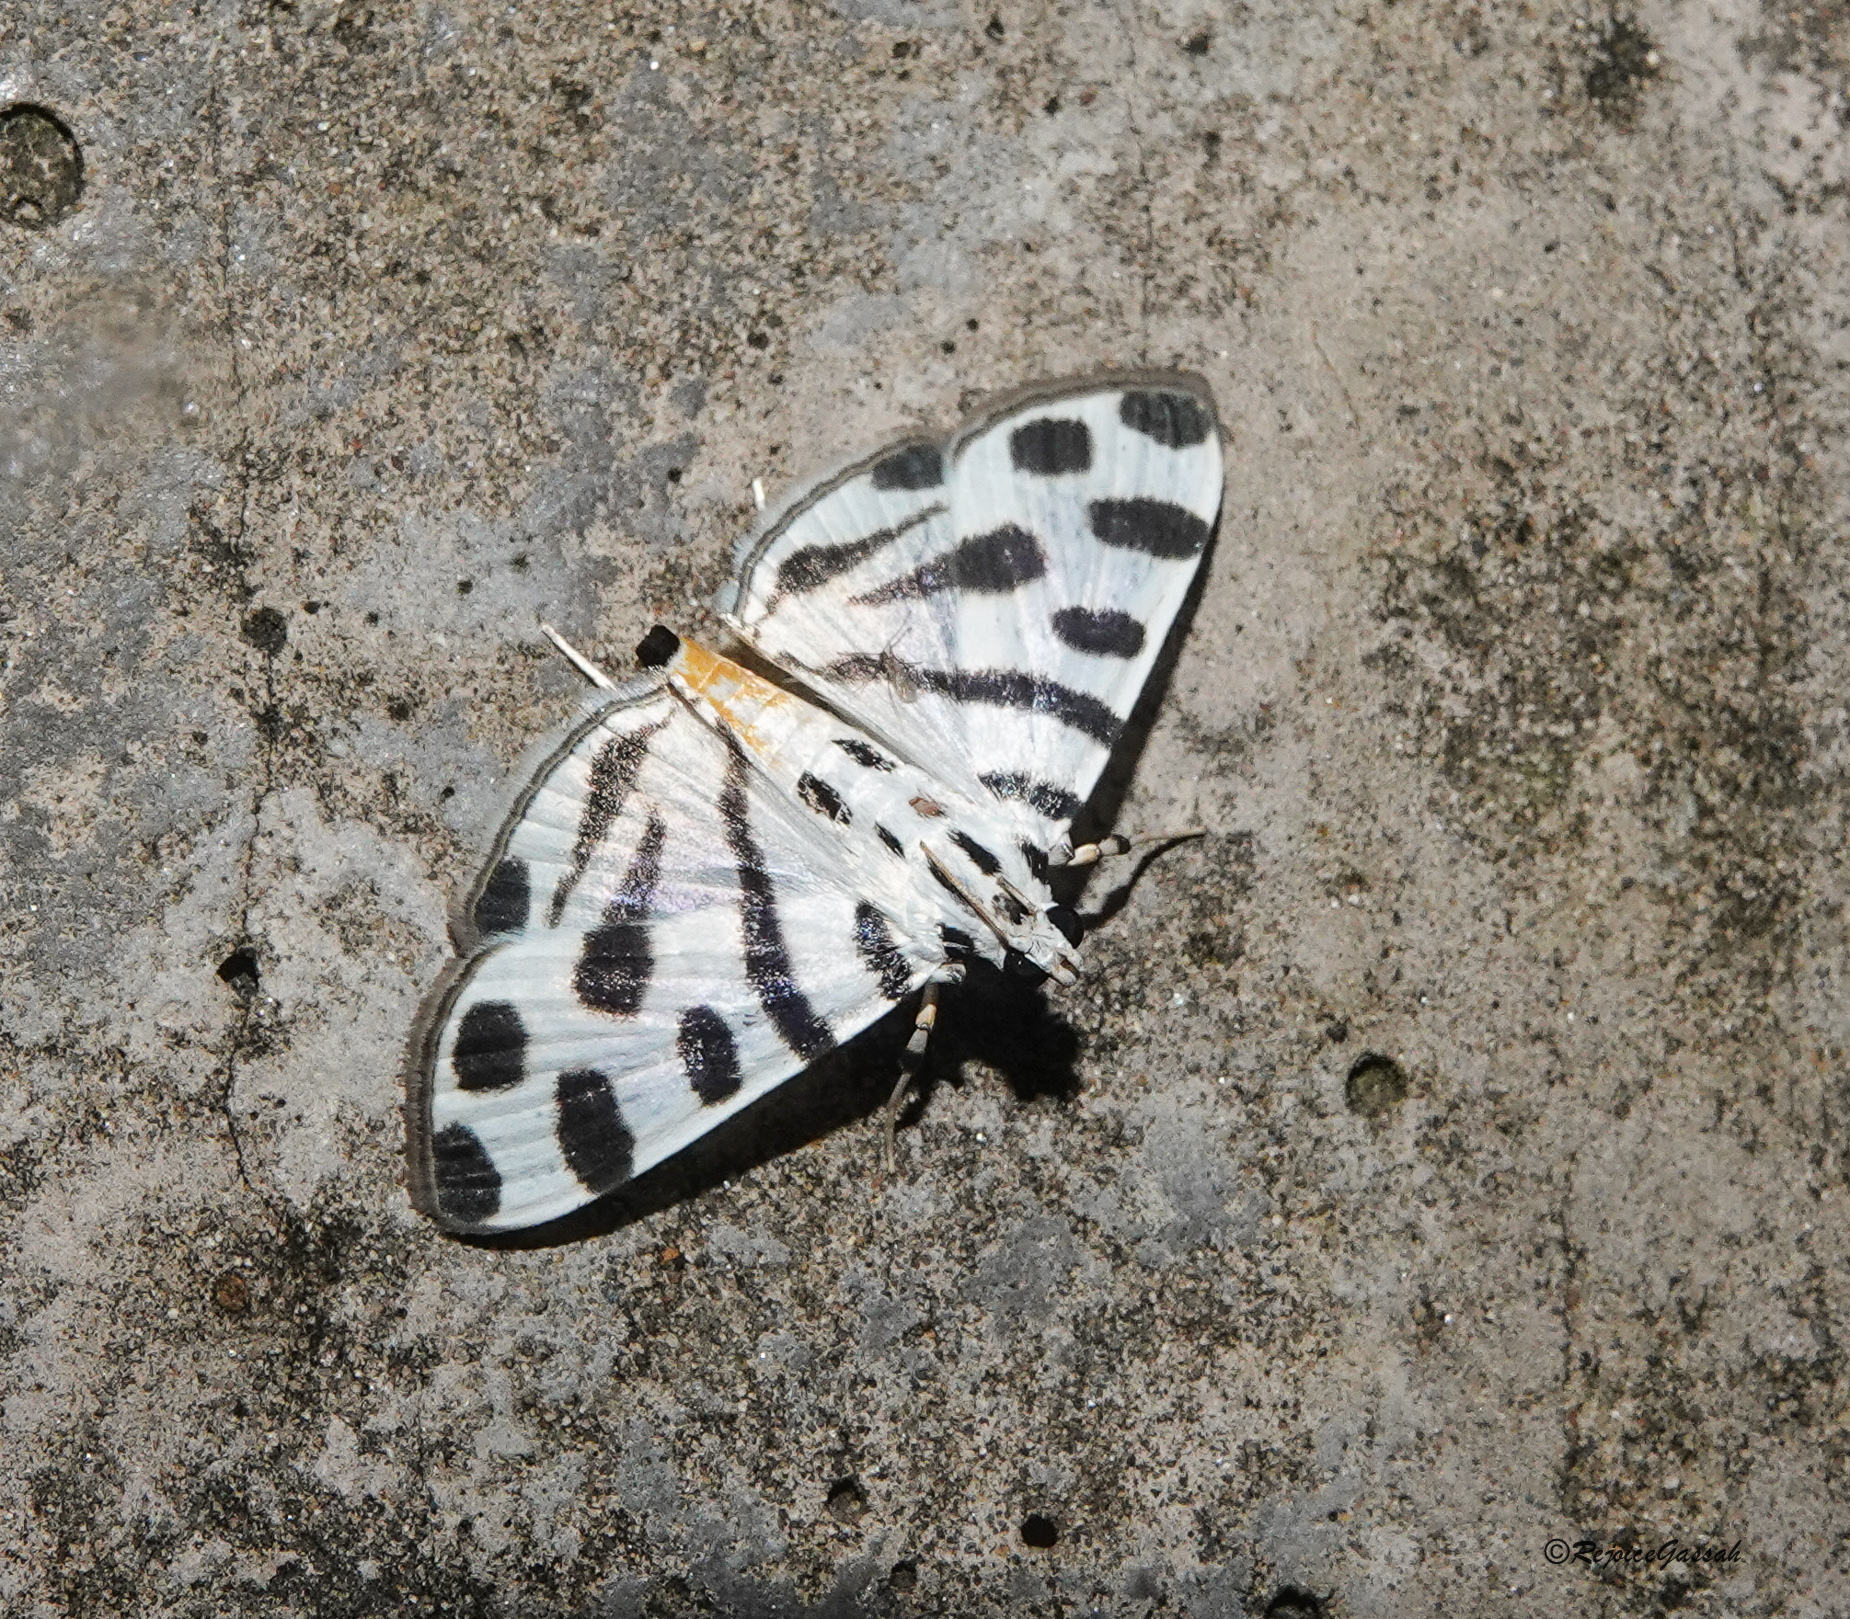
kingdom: Animalia
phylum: Arthropoda
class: Insecta
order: Lepidoptera
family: Crambidae
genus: Pycnarmon
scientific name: Pycnarmon jaguaralis
